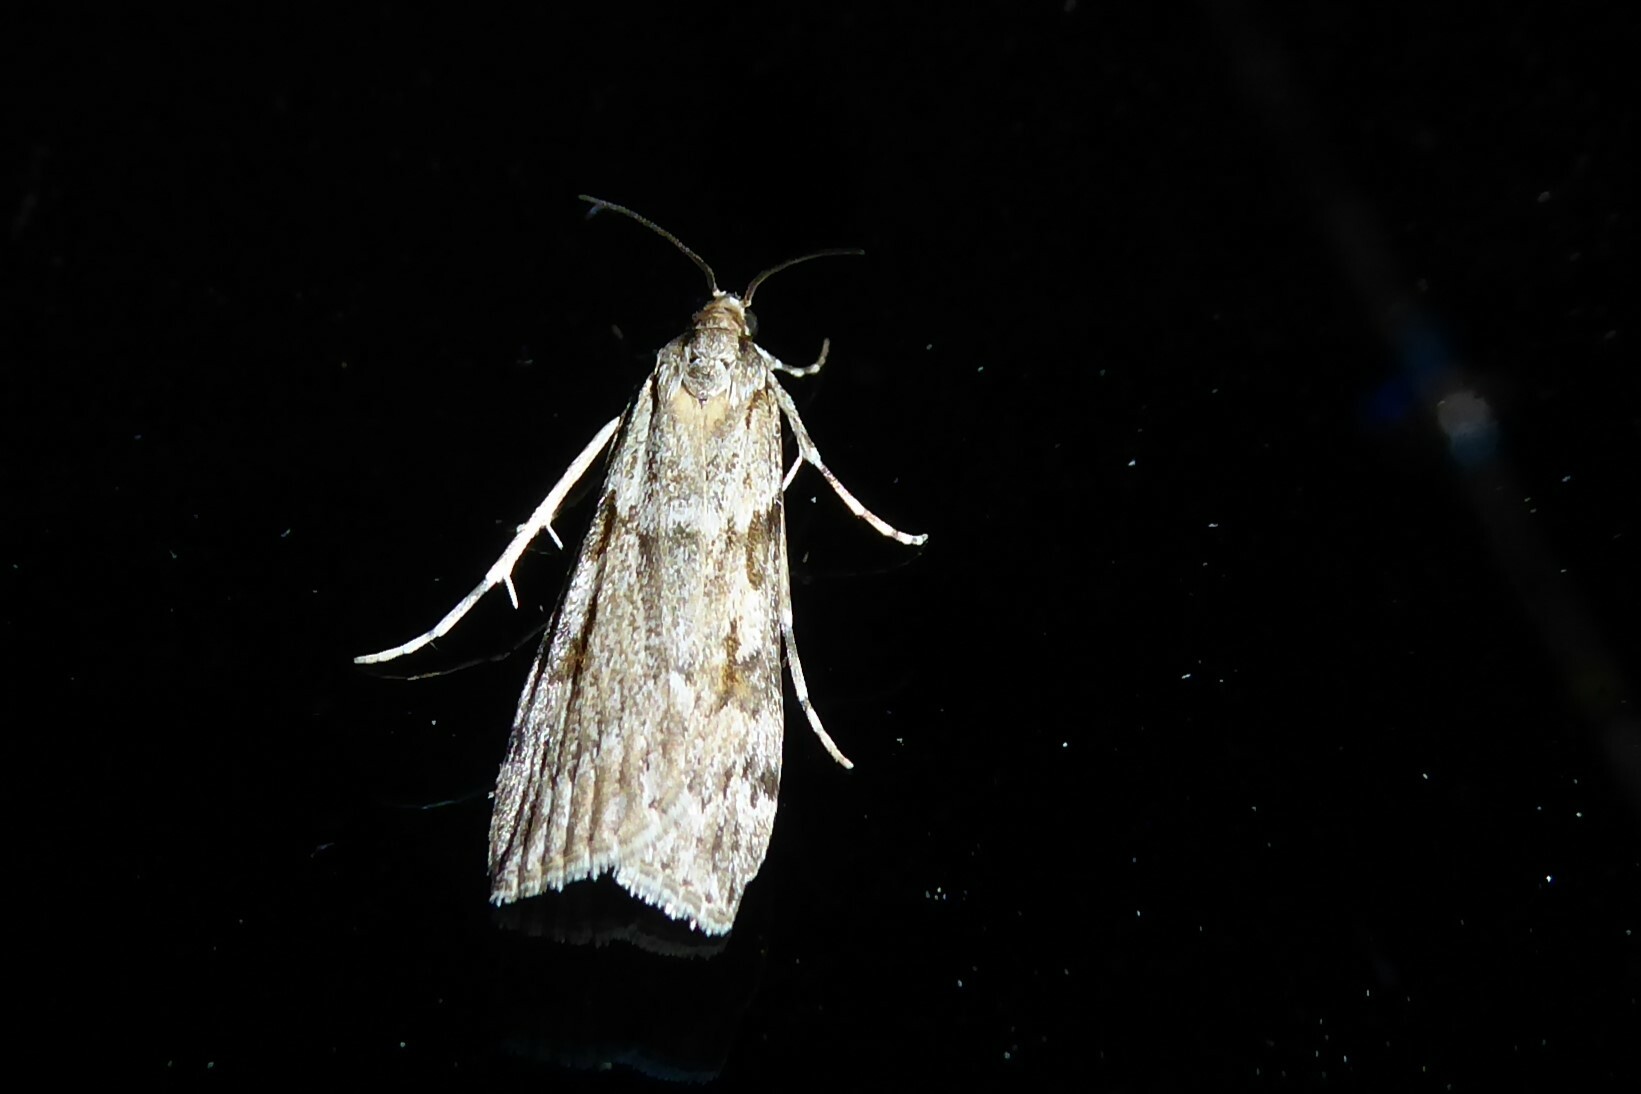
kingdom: Animalia
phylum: Arthropoda
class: Insecta
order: Lepidoptera
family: Crambidae
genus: Scoparia
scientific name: Scoparia halopis
